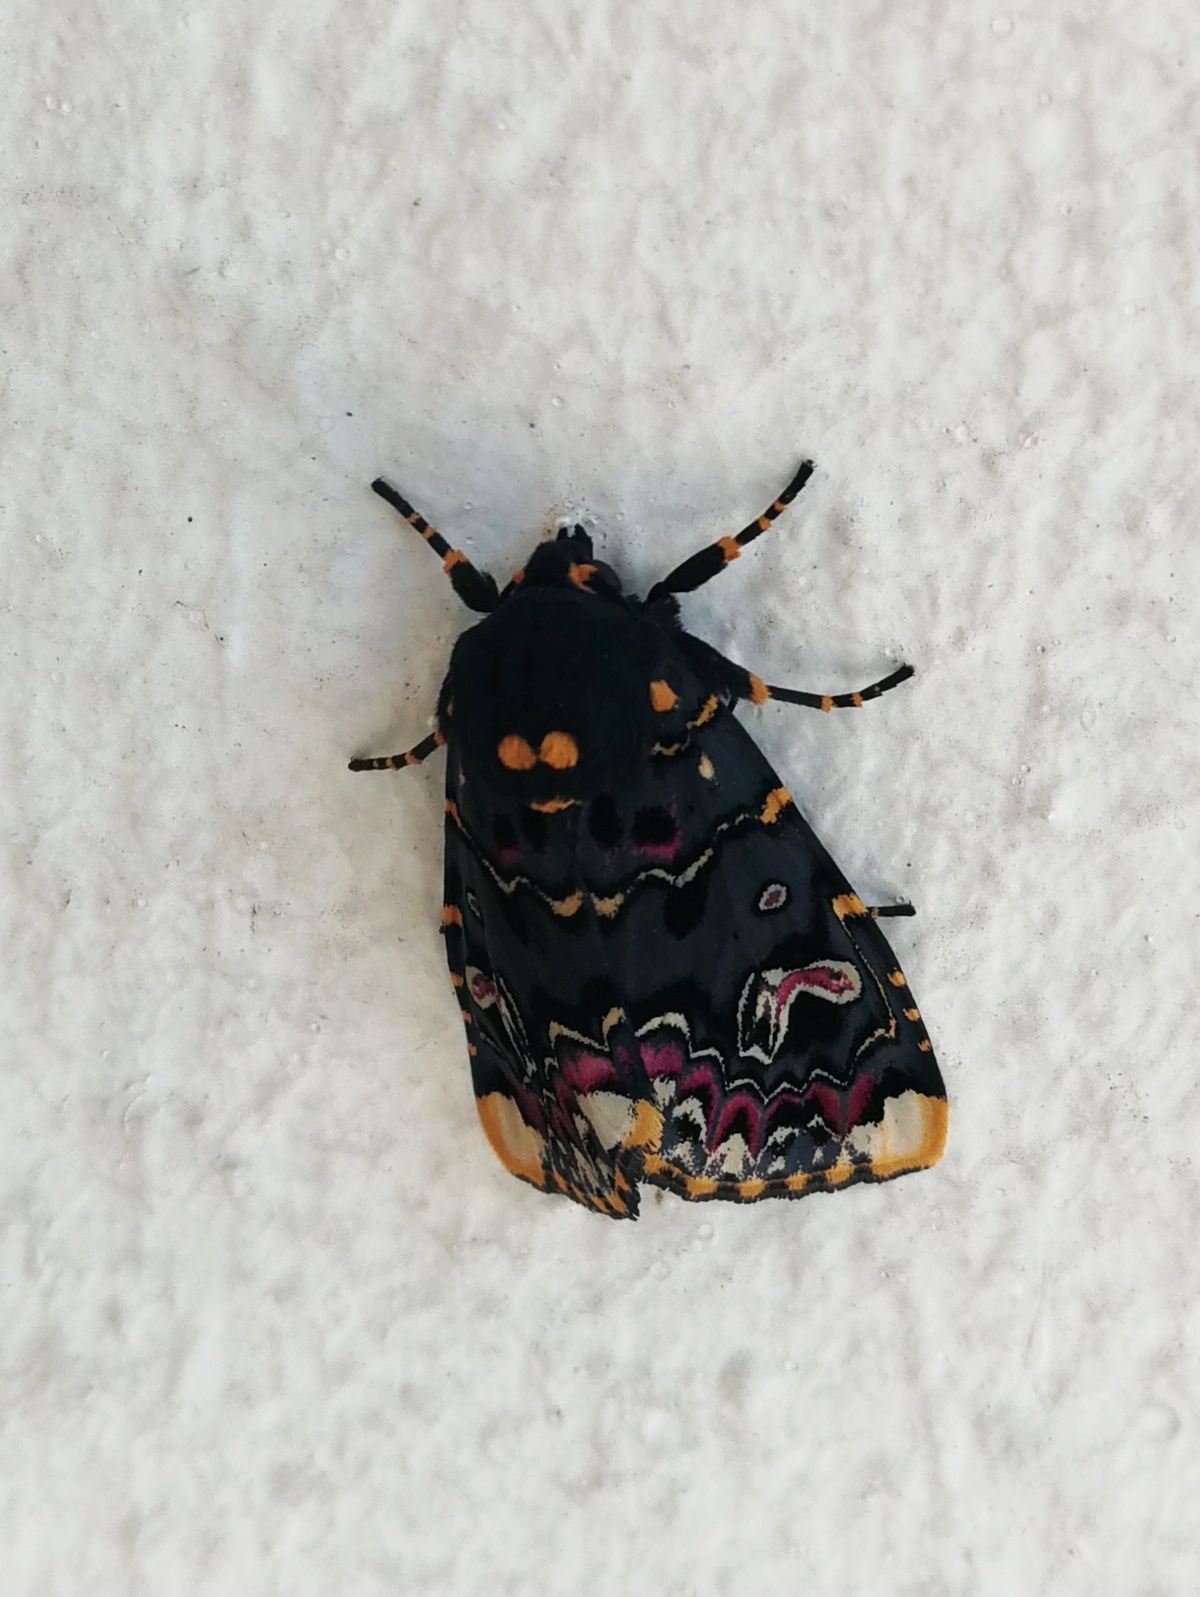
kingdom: Animalia
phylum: Arthropoda
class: Insecta
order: Lepidoptera
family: Noctuidae
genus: Polytela
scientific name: Polytela gloriosae
